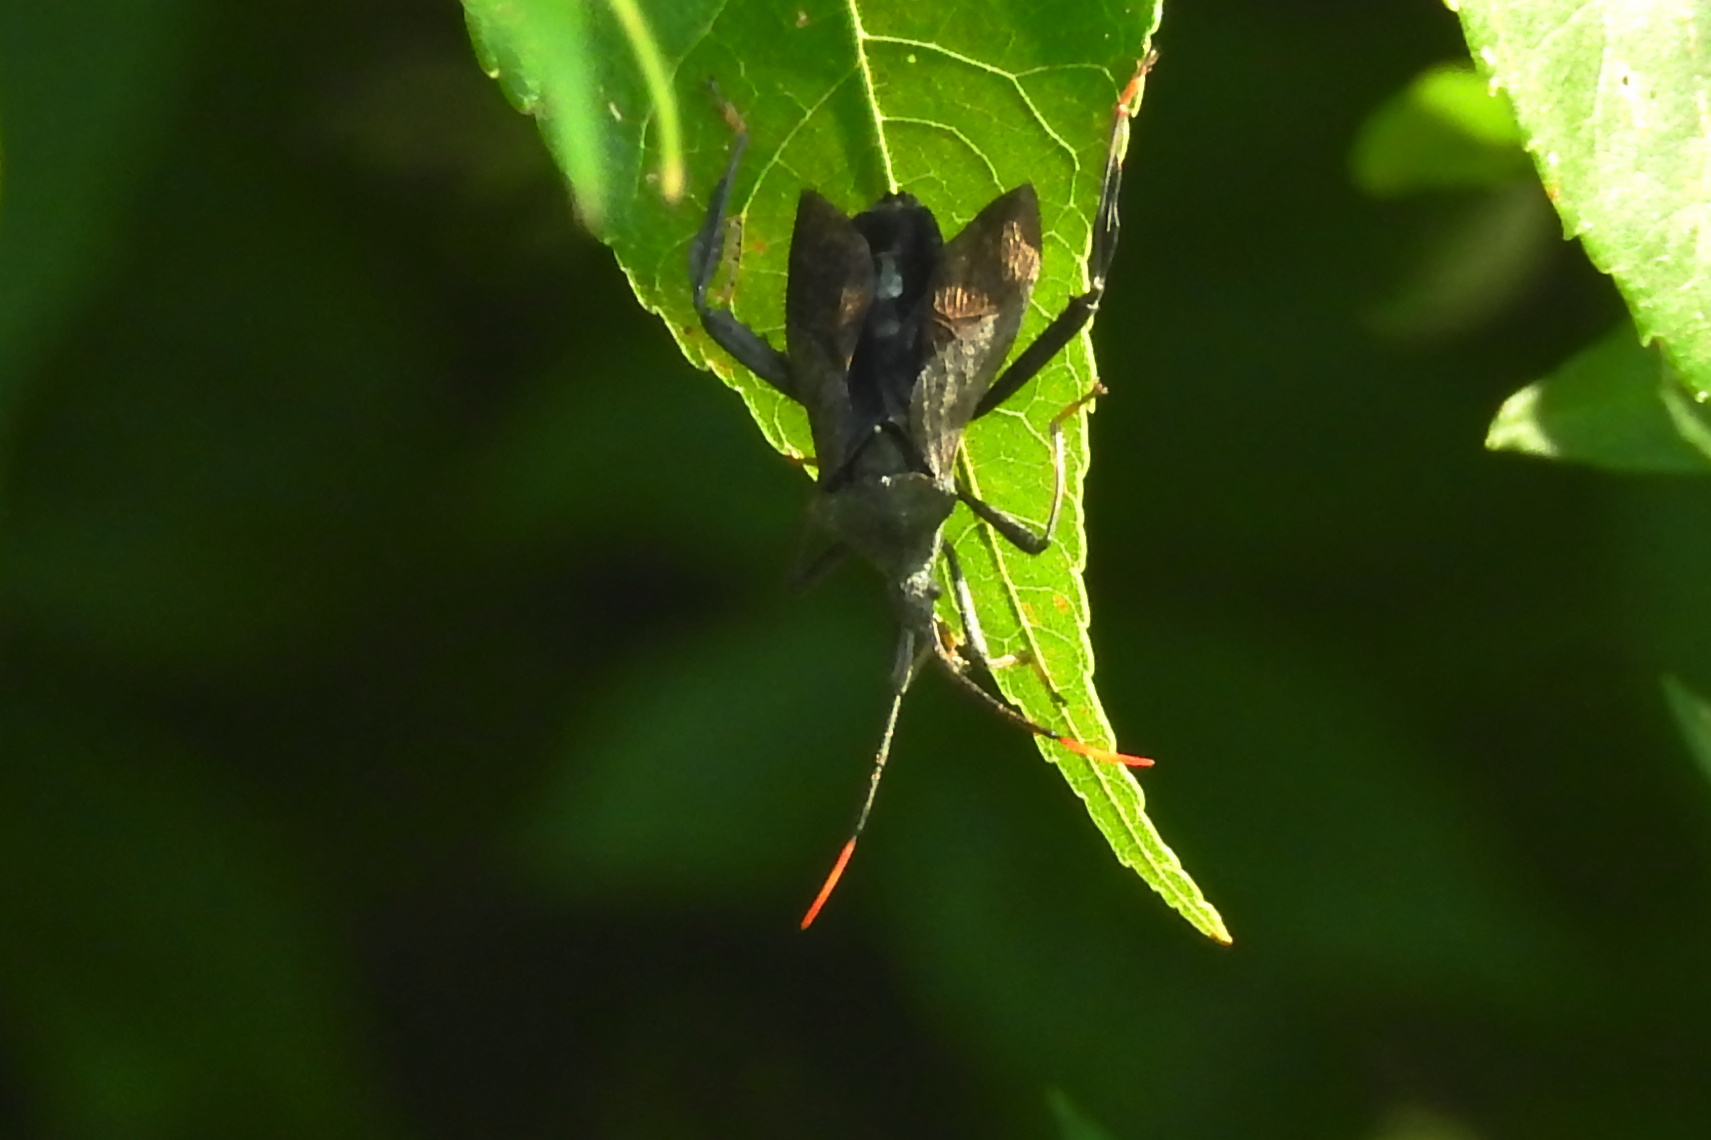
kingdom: Animalia
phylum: Arthropoda
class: Insecta
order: Hemiptera
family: Coreidae
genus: Acanthocephala
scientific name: Acanthocephala terminalis
